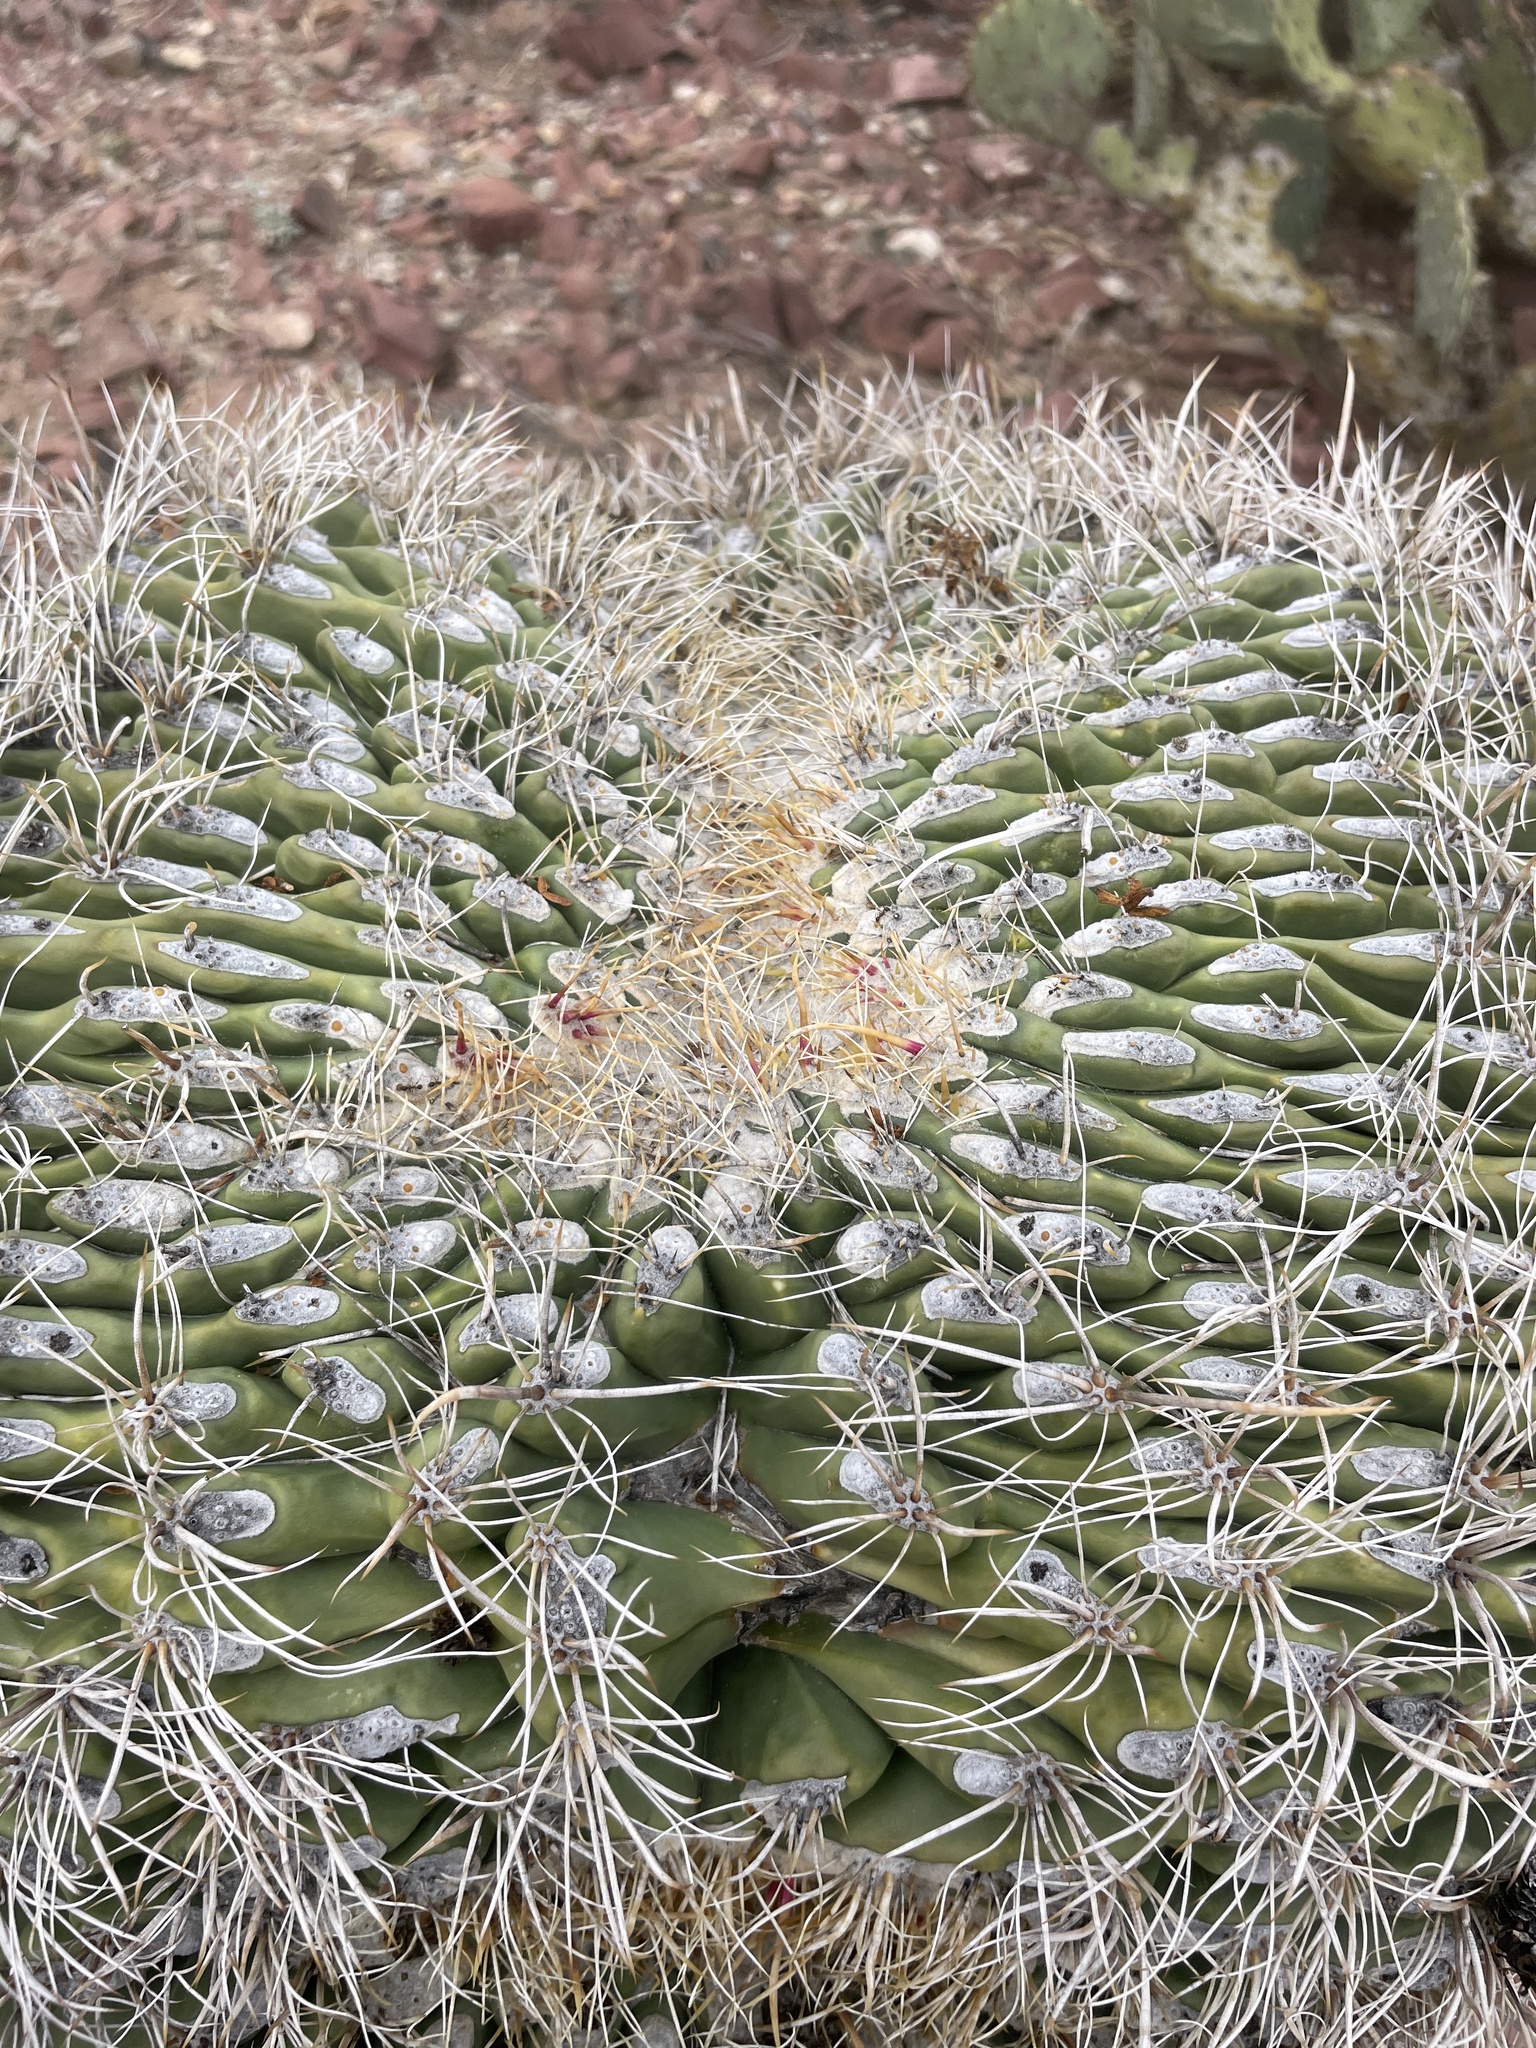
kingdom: Plantae
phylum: Tracheophyta
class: Magnoliopsida
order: Caryophyllales
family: Cactaceae
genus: Ferocactus
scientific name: Ferocactus wislizeni
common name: Candy barrel cactus
